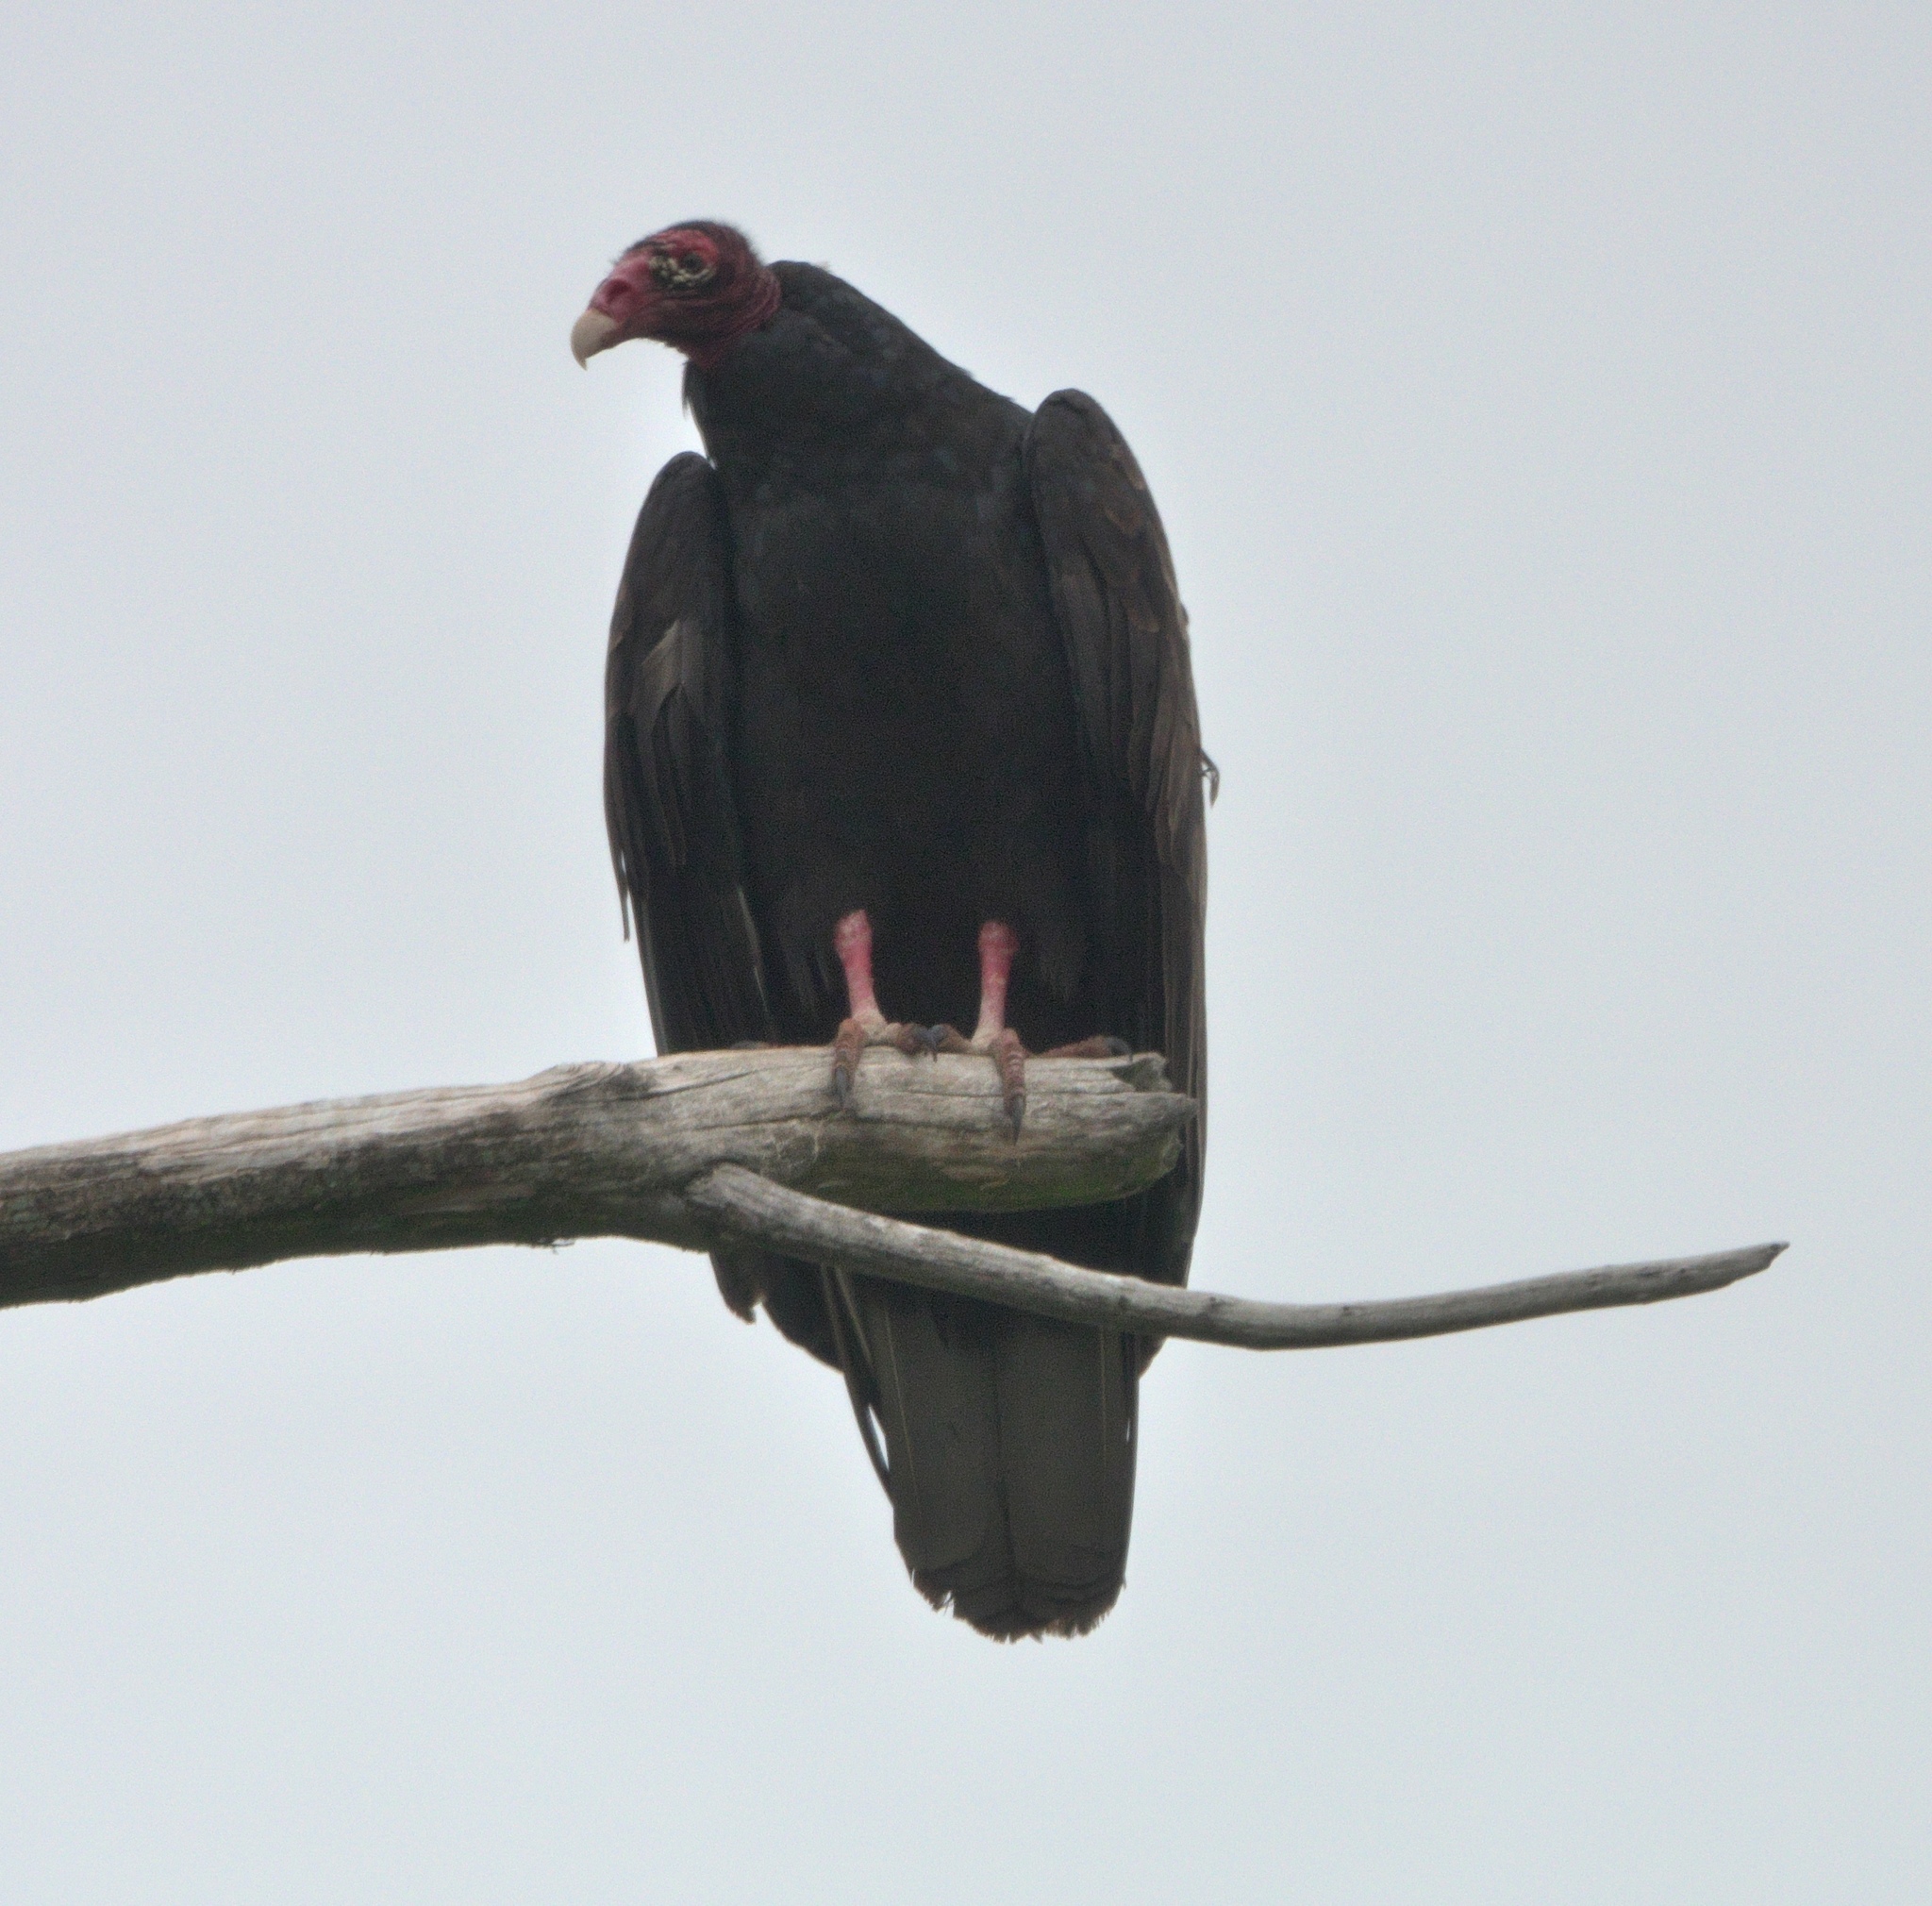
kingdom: Animalia
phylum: Chordata
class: Aves
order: Accipitriformes
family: Cathartidae
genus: Cathartes
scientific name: Cathartes aura
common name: Turkey vulture
